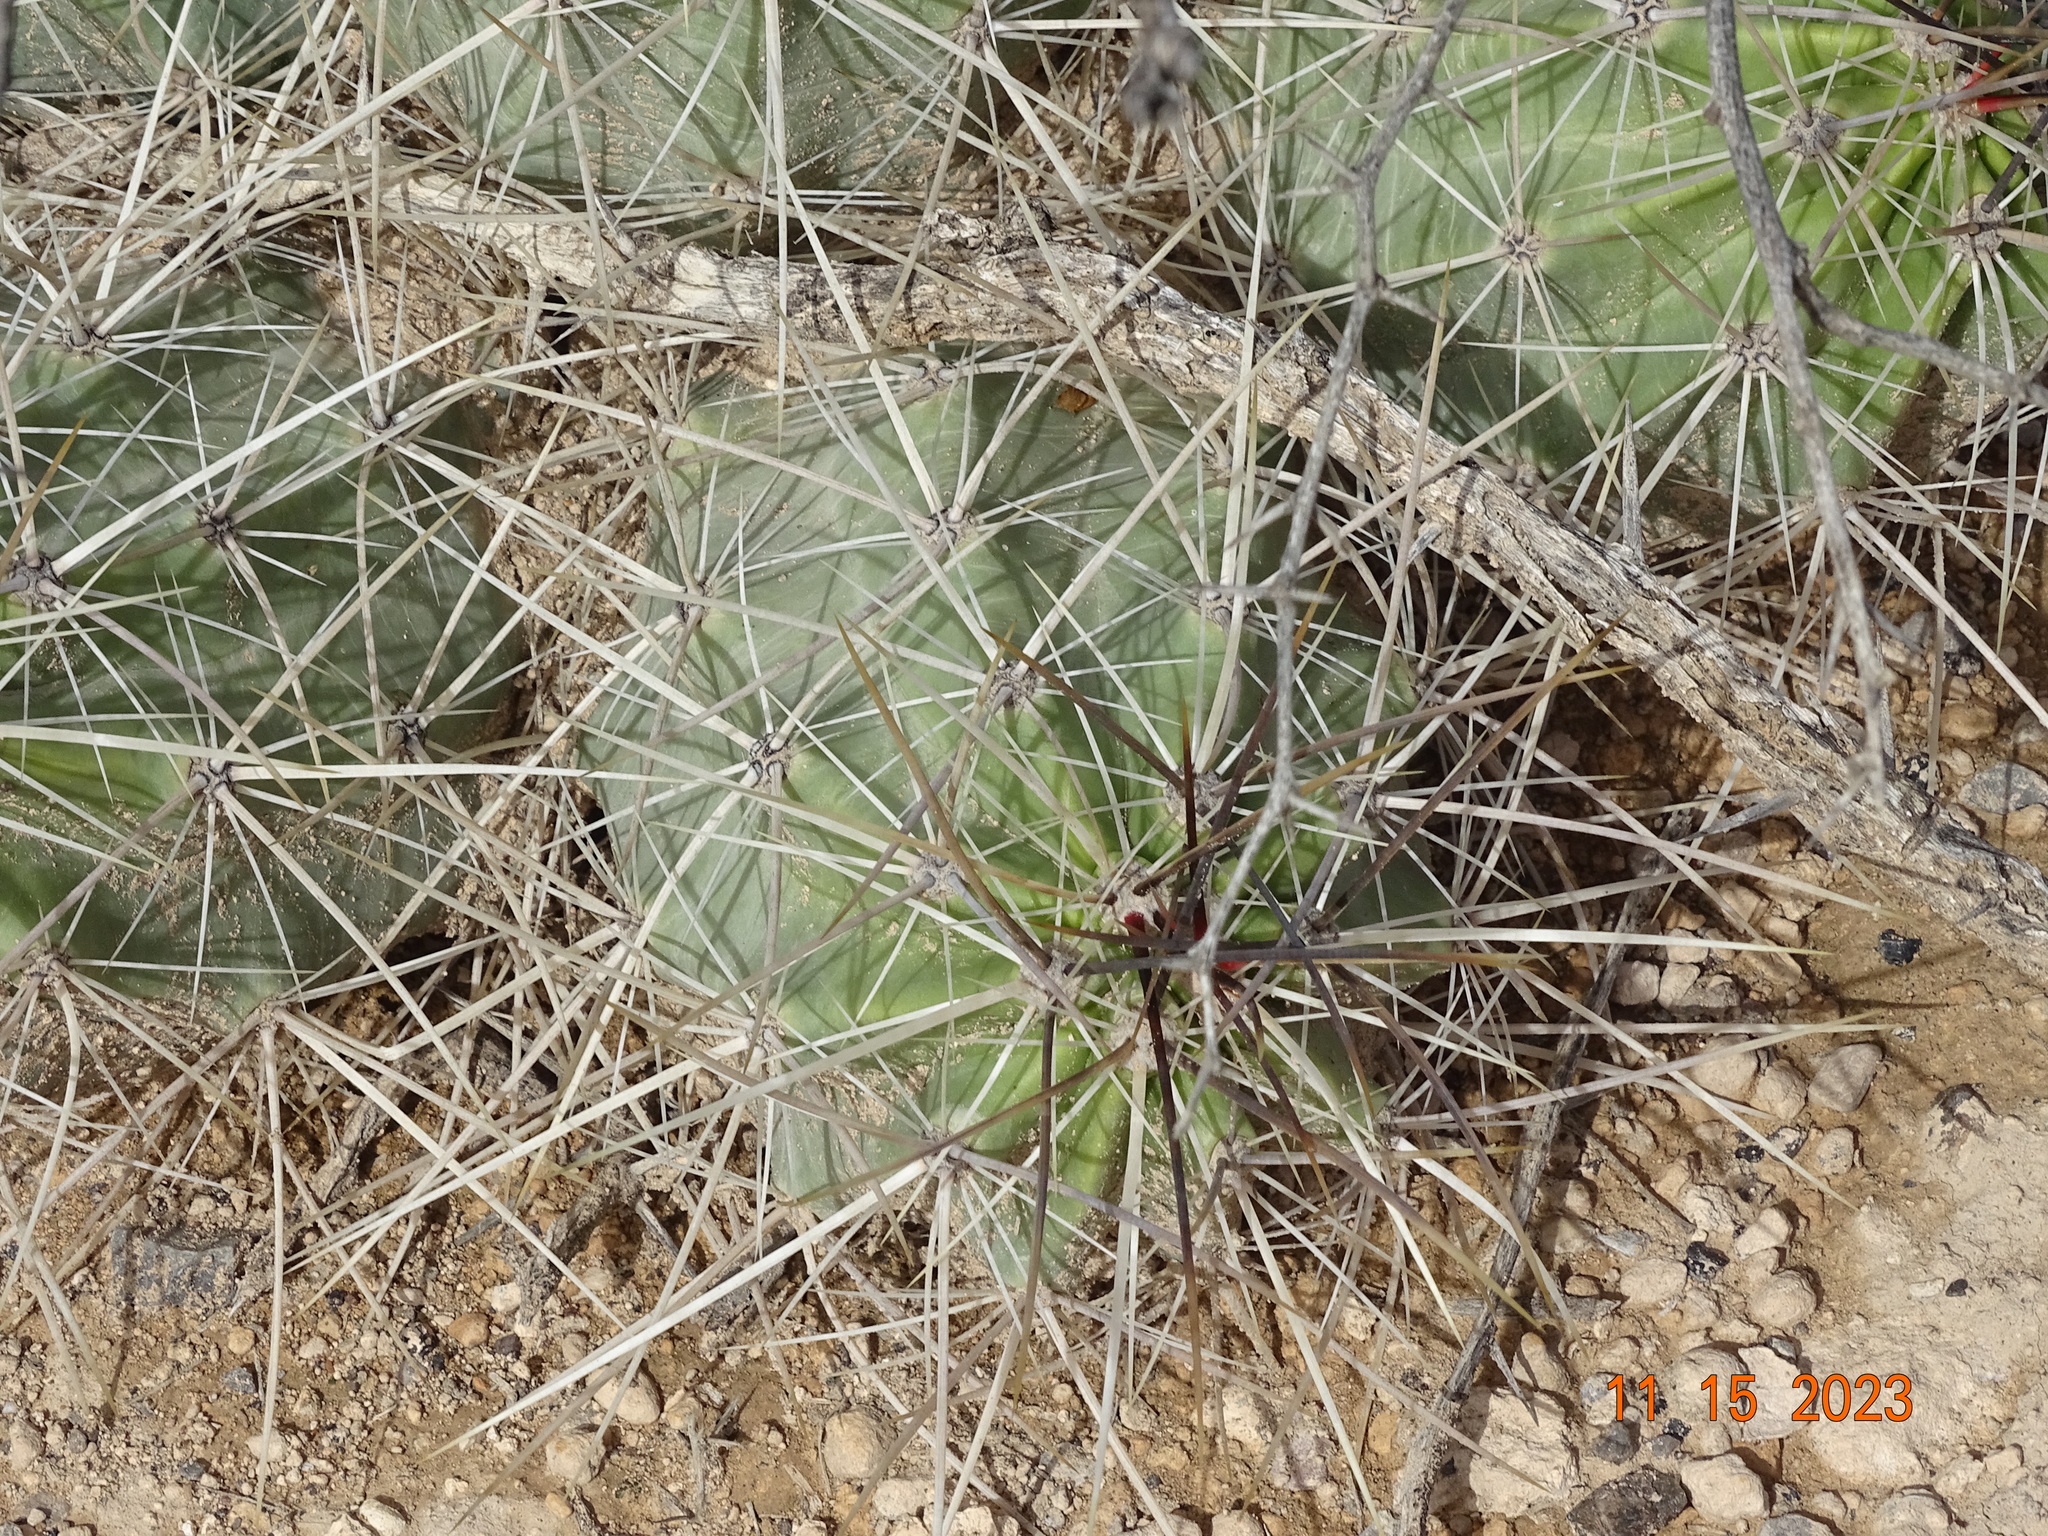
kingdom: Plantae
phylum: Tracheophyta
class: Magnoliopsida
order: Caryophyllales
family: Cactaceae
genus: Echinocereus
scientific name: Echinocereus enneacanthus
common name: Pitaya
